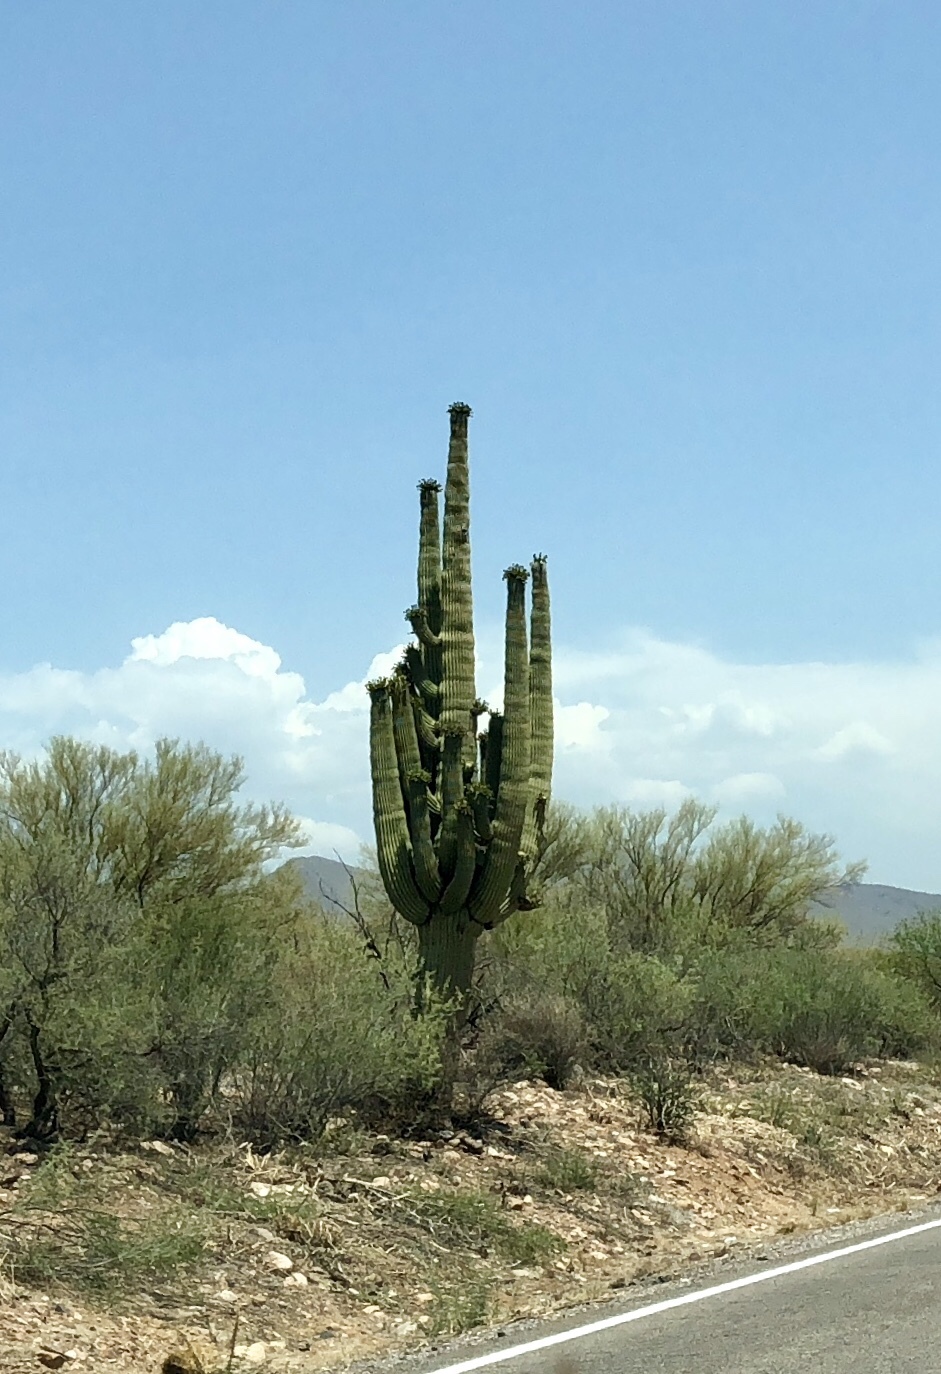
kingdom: Plantae
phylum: Tracheophyta
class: Magnoliopsida
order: Caryophyllales
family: Cactaceae
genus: Carnegiea
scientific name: Carnegiea gigantea
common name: Saguaro
